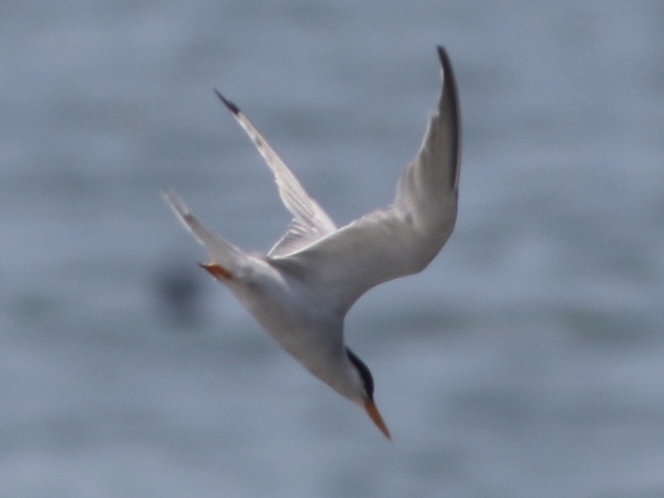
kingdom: Animalia
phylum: Chordata
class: Aves
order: Charadriiformes
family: Laridae
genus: Sternula
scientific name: Sternula antillarum
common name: Least tern
